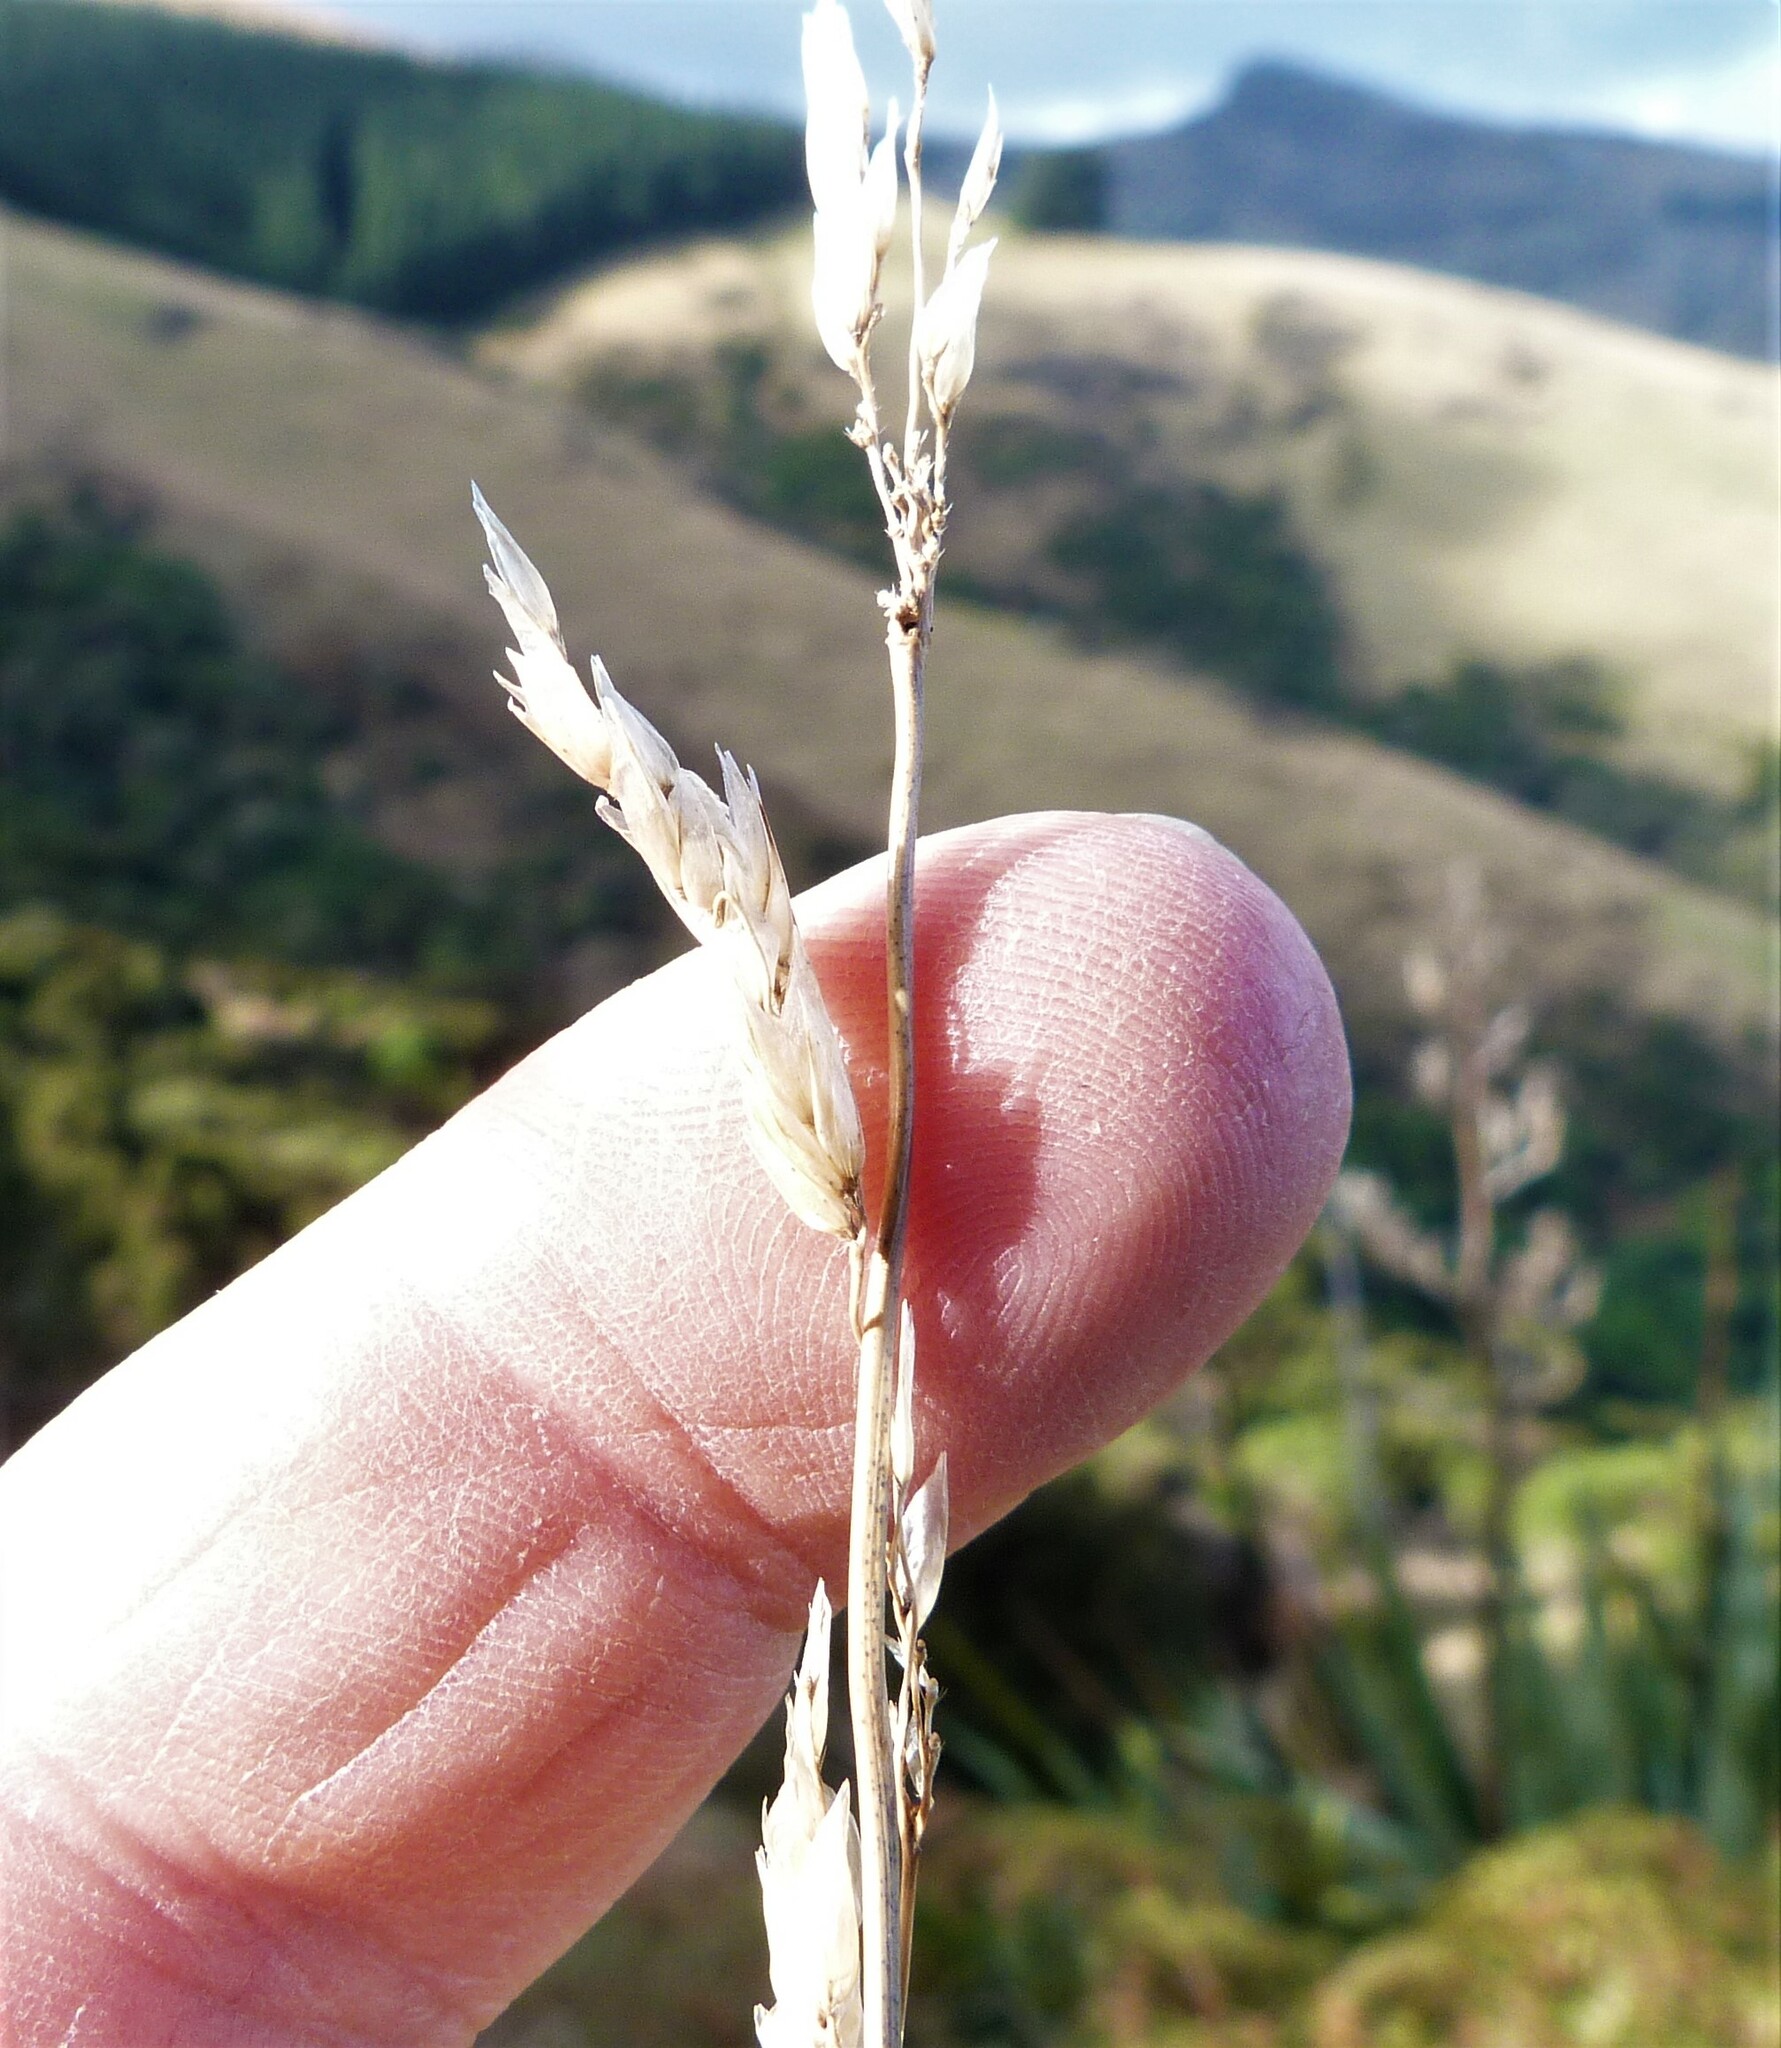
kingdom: Plantae
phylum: Tracheophyta
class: Liliopsida
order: Poales
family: Poaceae
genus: Anthoxanthum
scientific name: Anthoxanthum redolens
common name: Sweet holy grass
